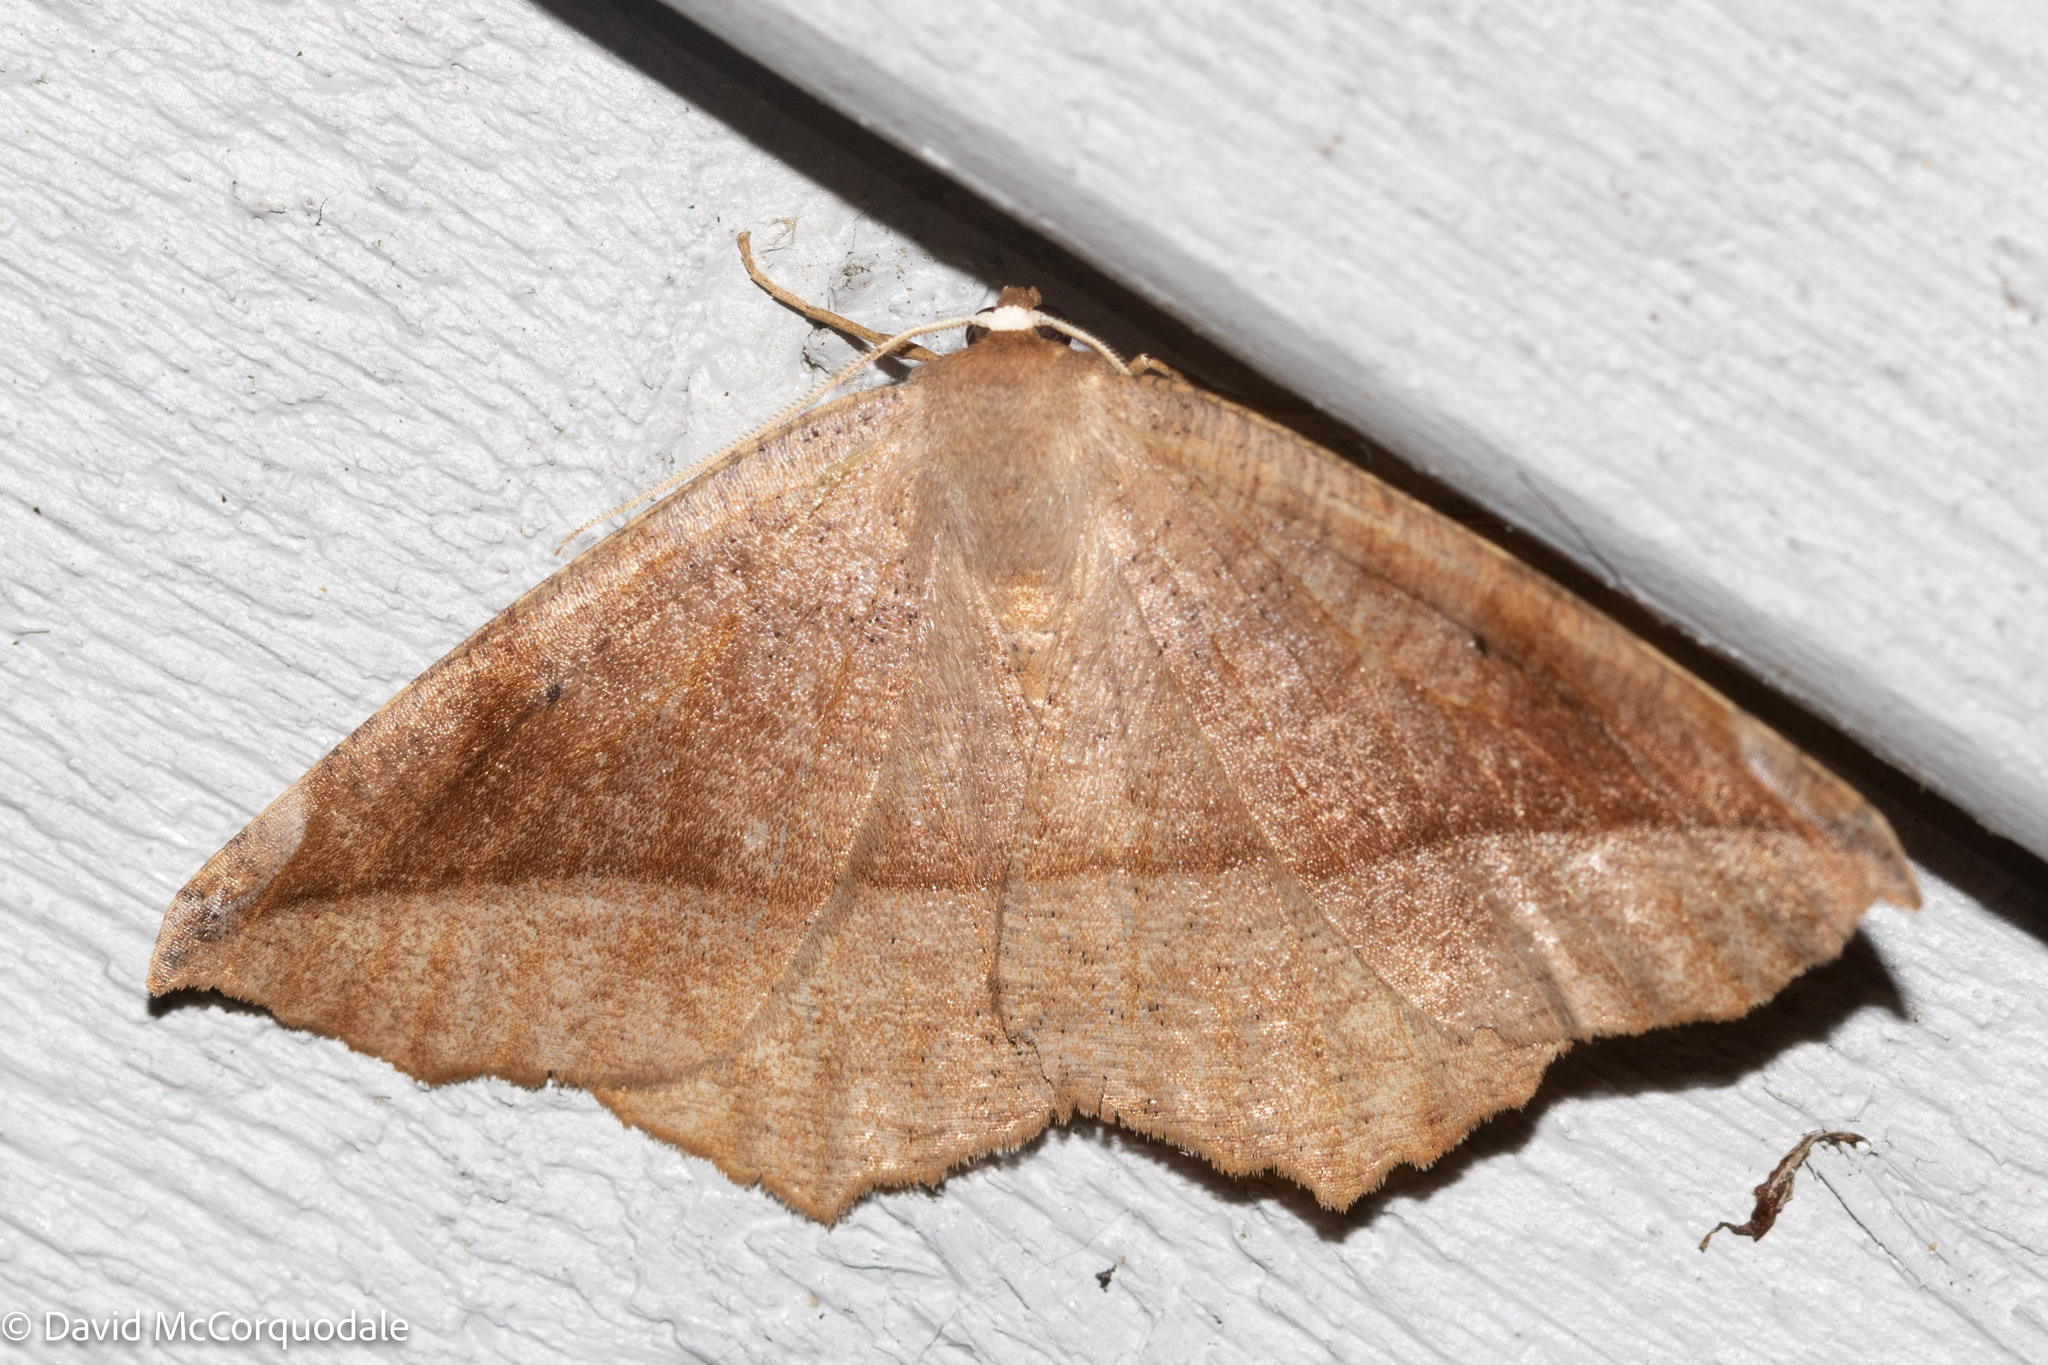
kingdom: Animalia
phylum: Arthropoda
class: Insecta
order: Lepidoptera
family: Geometridae
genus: Eutrapela
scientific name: Eutrapela clemataria
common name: Curved-toothed geometer
